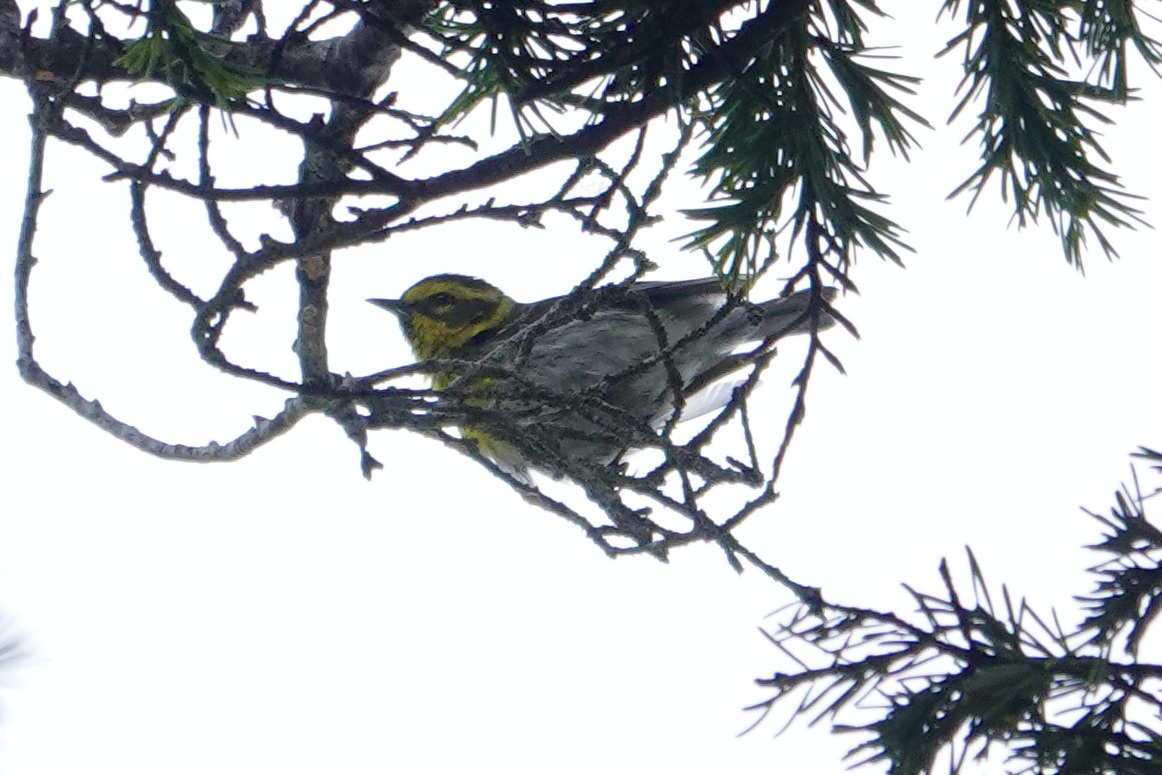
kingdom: Animalia
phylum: Chordata
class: Aves
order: Passeriformes
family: Parulidae
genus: Setophaga
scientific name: Setophaga townsendi
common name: Townsend's warbler
